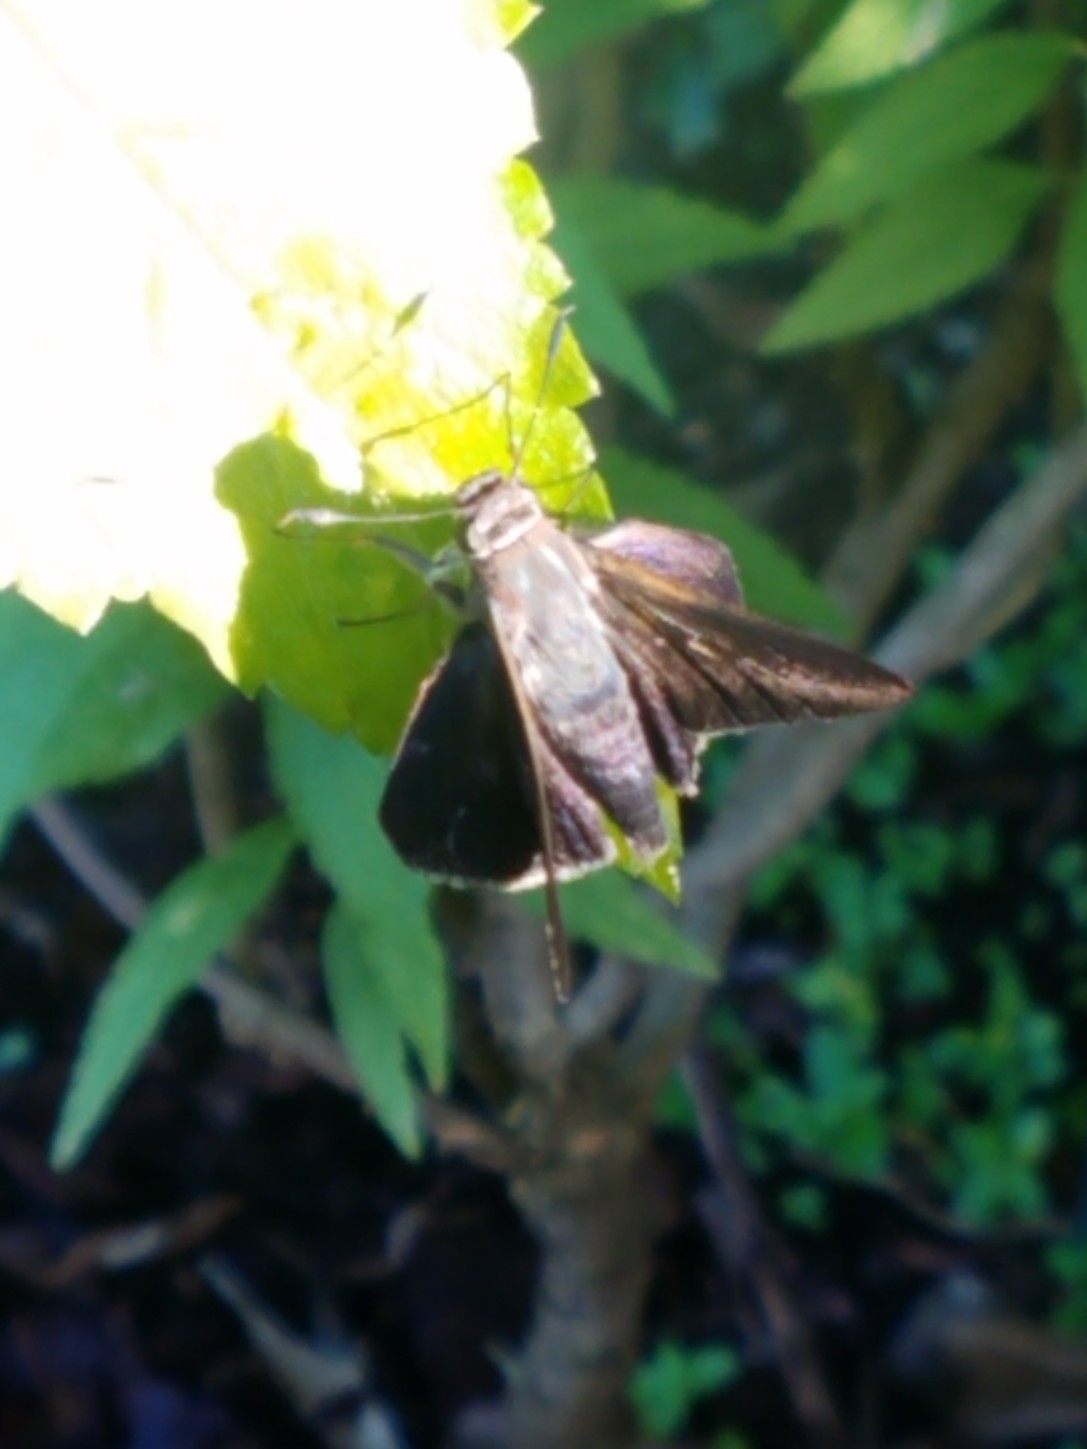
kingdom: Animalia
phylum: Arthropoda
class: Insecta
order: Lepidoptera
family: Hesperiidae
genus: Asbolis
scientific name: Asbolis capucinus
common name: Monk skipper
